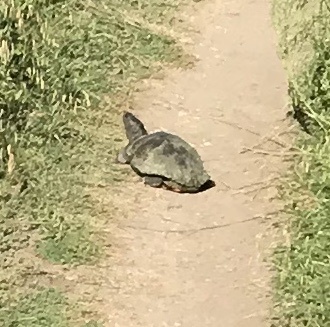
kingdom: Animalia
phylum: Chordata
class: Testudines
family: Emydidae
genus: Trachemys
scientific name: Trachemys scripta
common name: Slider
